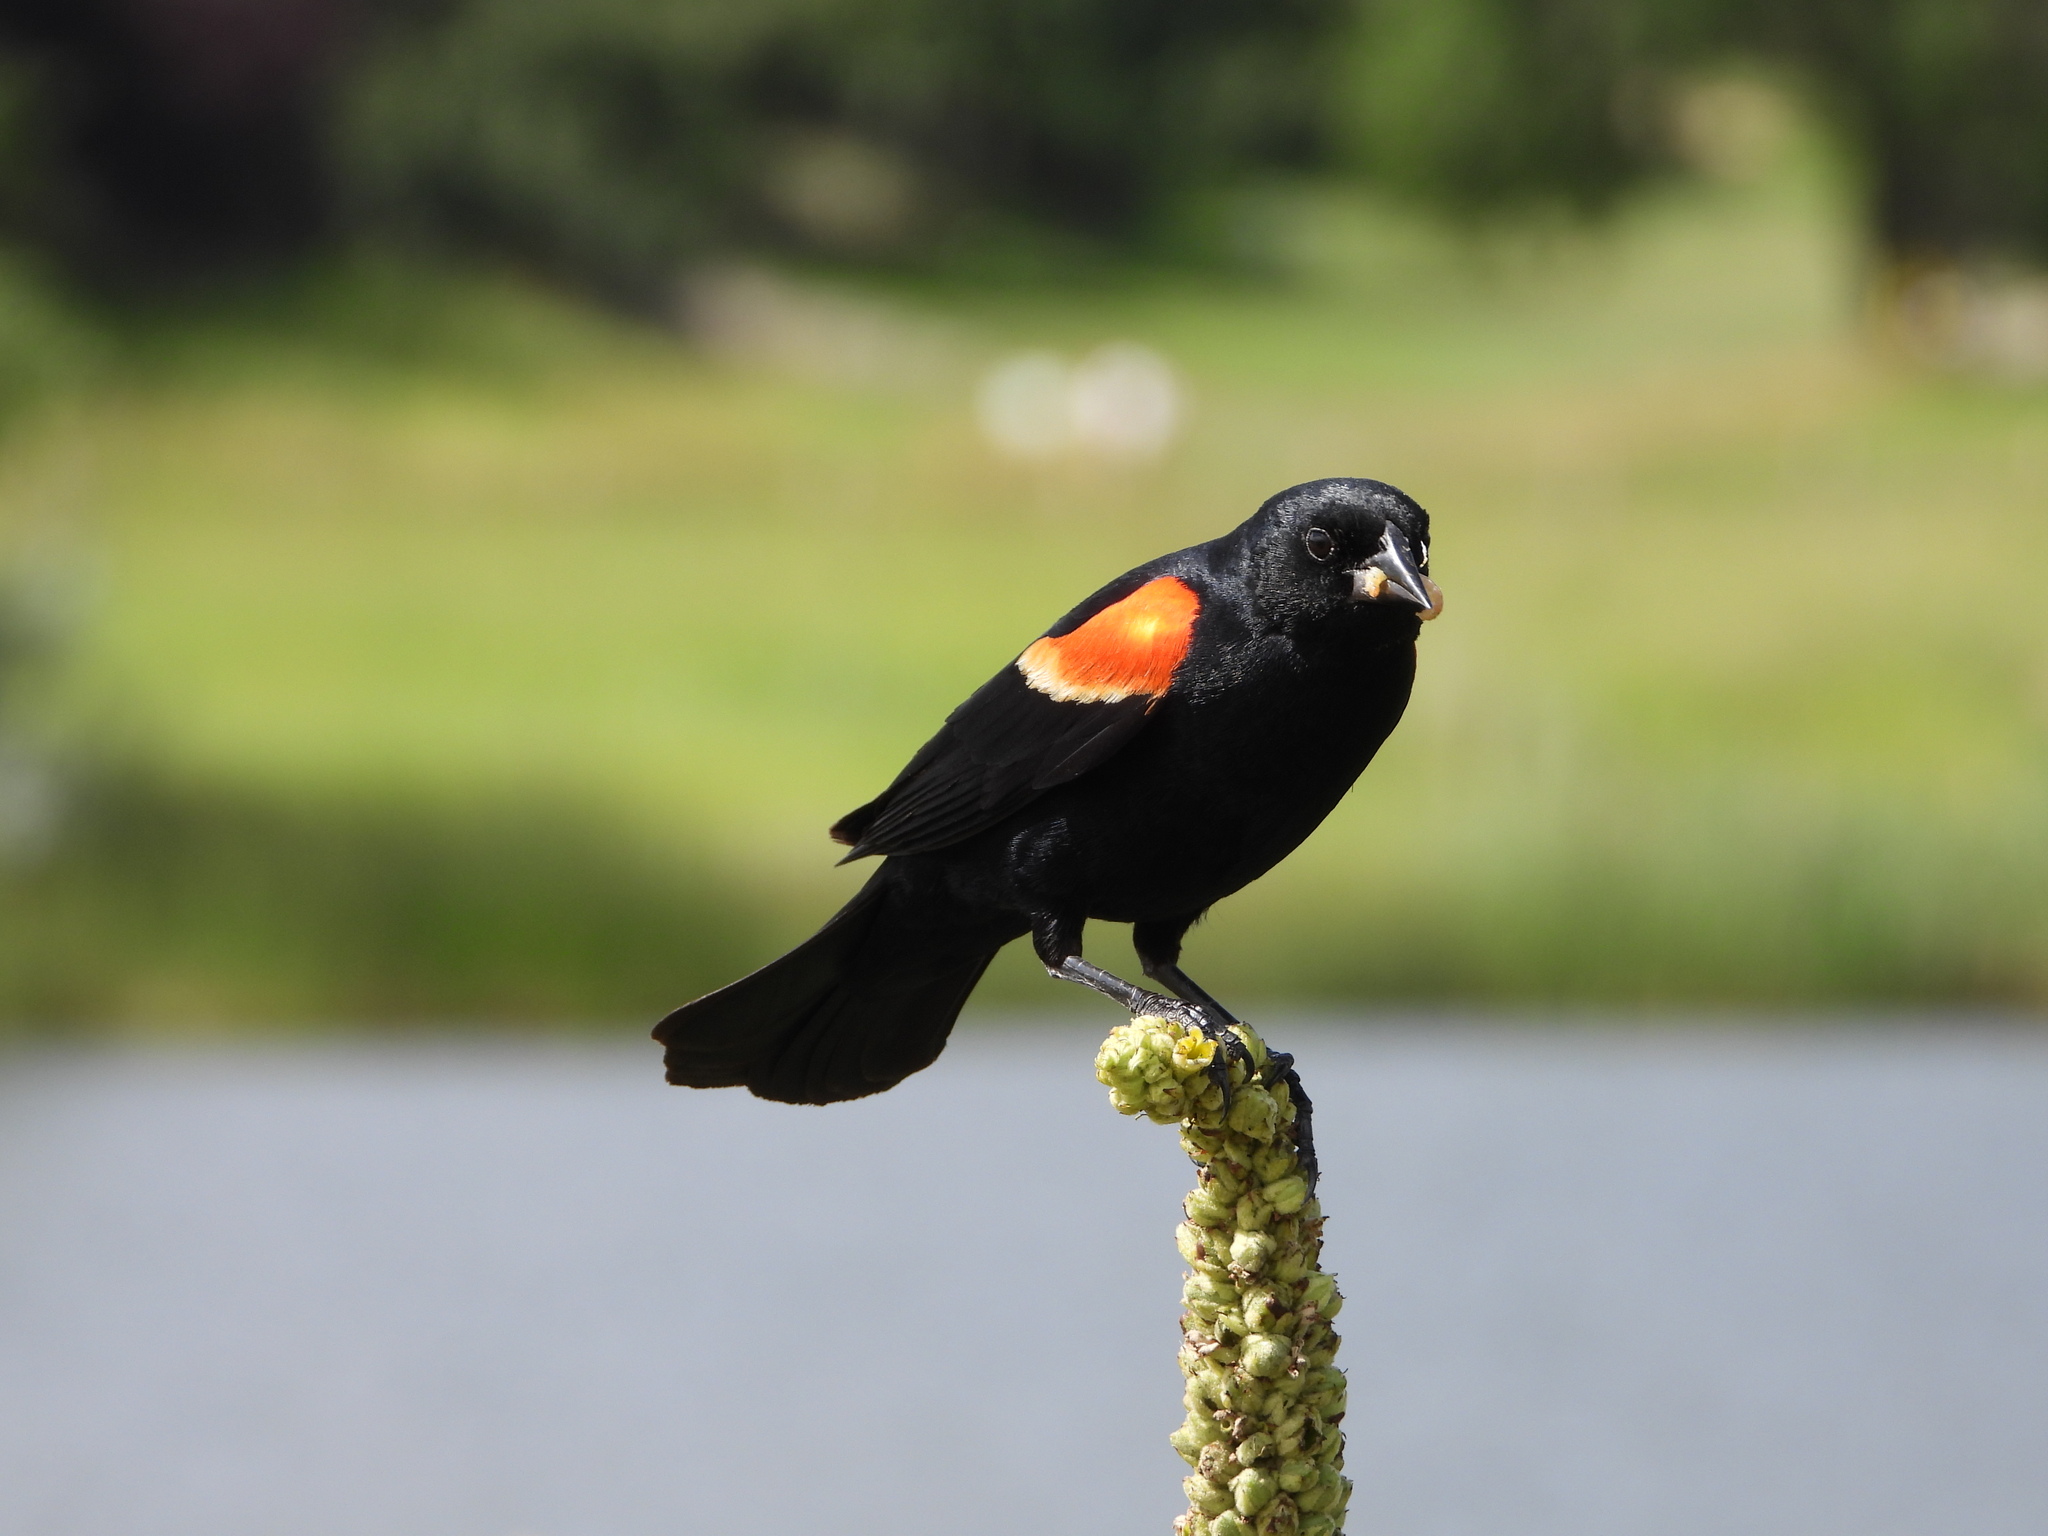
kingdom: Animalia
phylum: Chordata
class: Aves
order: Passeriformes
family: Icteridae
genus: Agelaius
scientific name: Agelaius phoeniceus
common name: Red-winged blackbird
